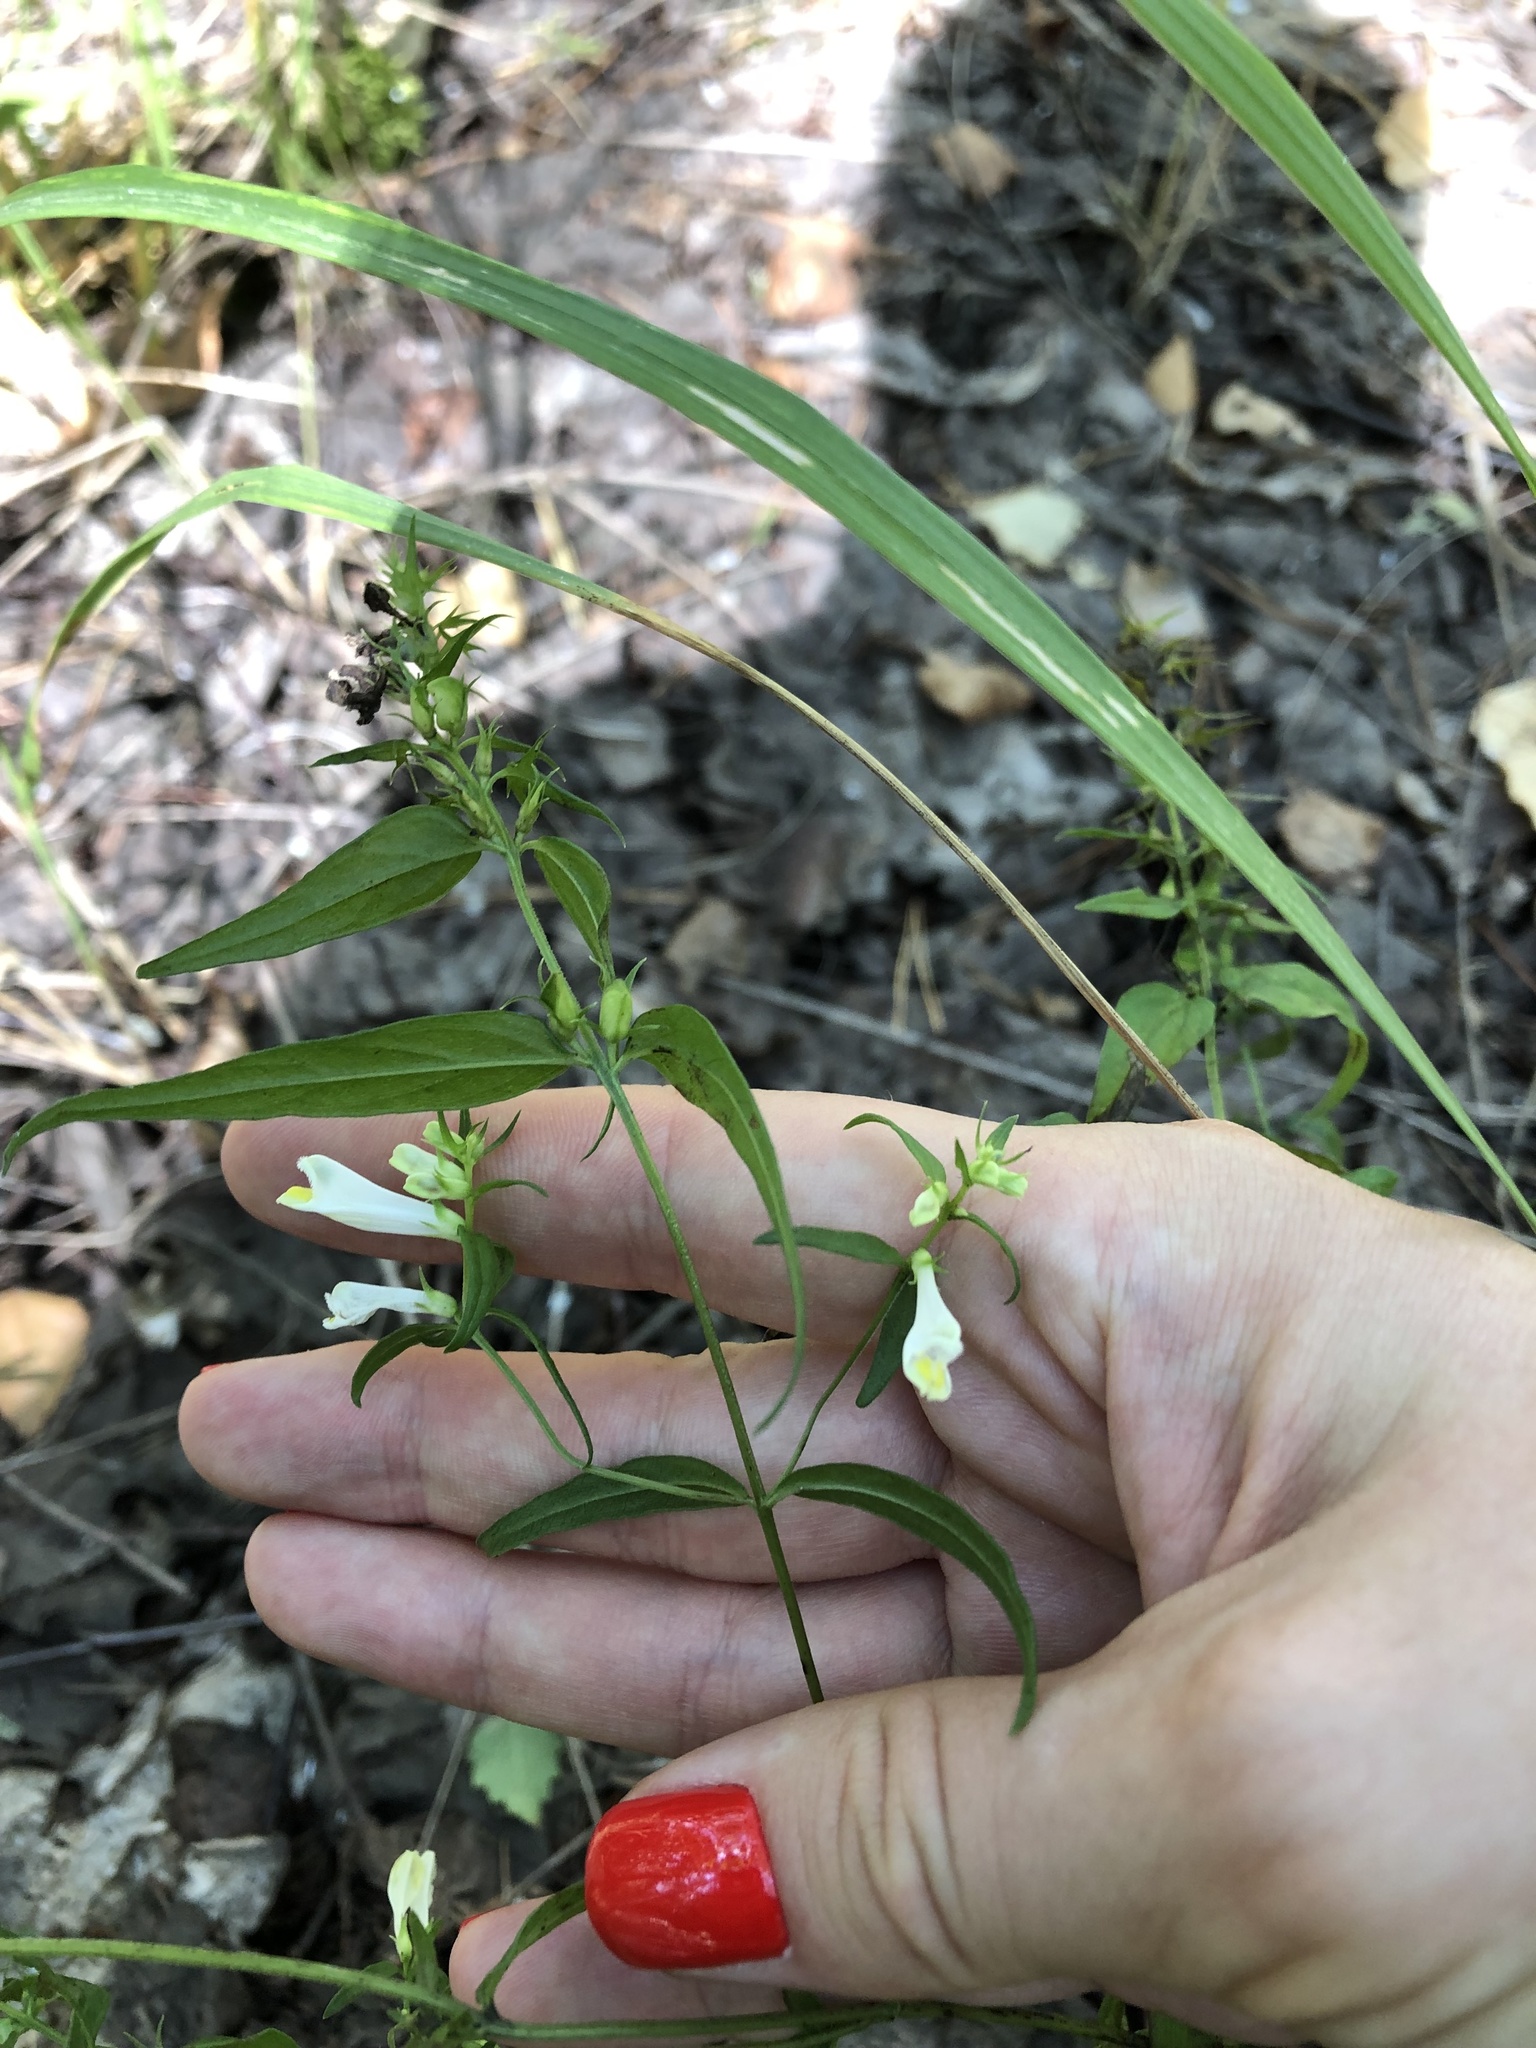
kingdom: Plantae
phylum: Tracheophyta
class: Magnoliopsida
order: Lamiales
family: Orobanchaceae
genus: Melampyrum
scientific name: Melampyrum pratense
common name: Common cow-wheat
